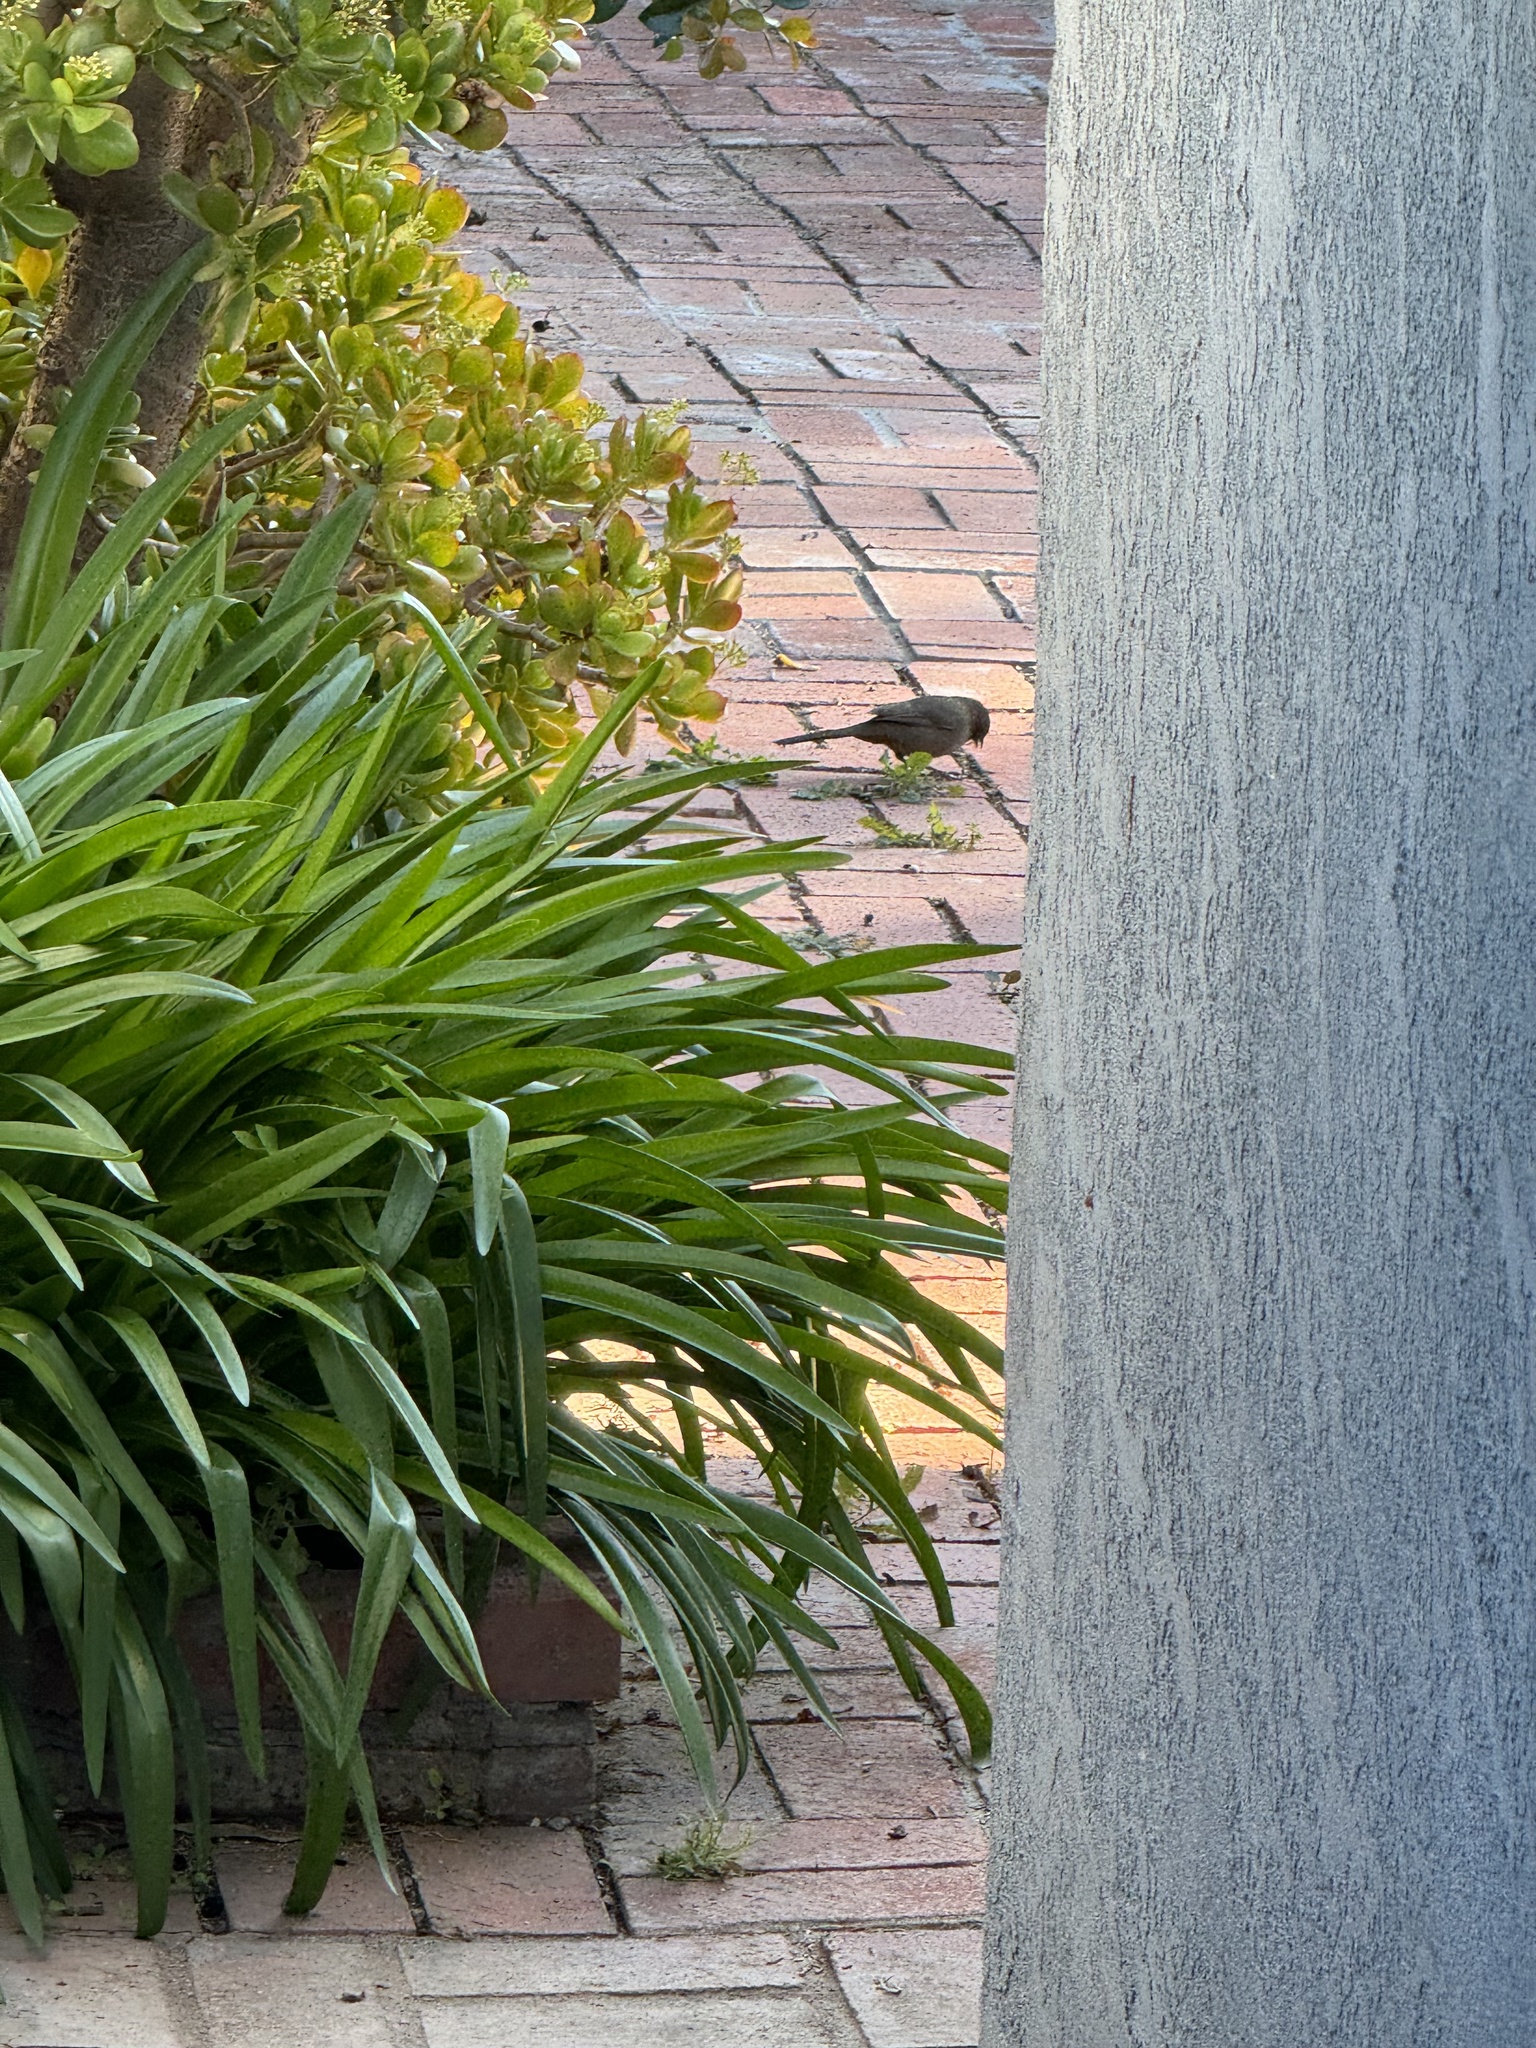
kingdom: Animalia
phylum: Chordata
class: Aves
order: Passeriformes
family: Passerellidae
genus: Melozone
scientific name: Melozone crissalis
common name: California towhee
